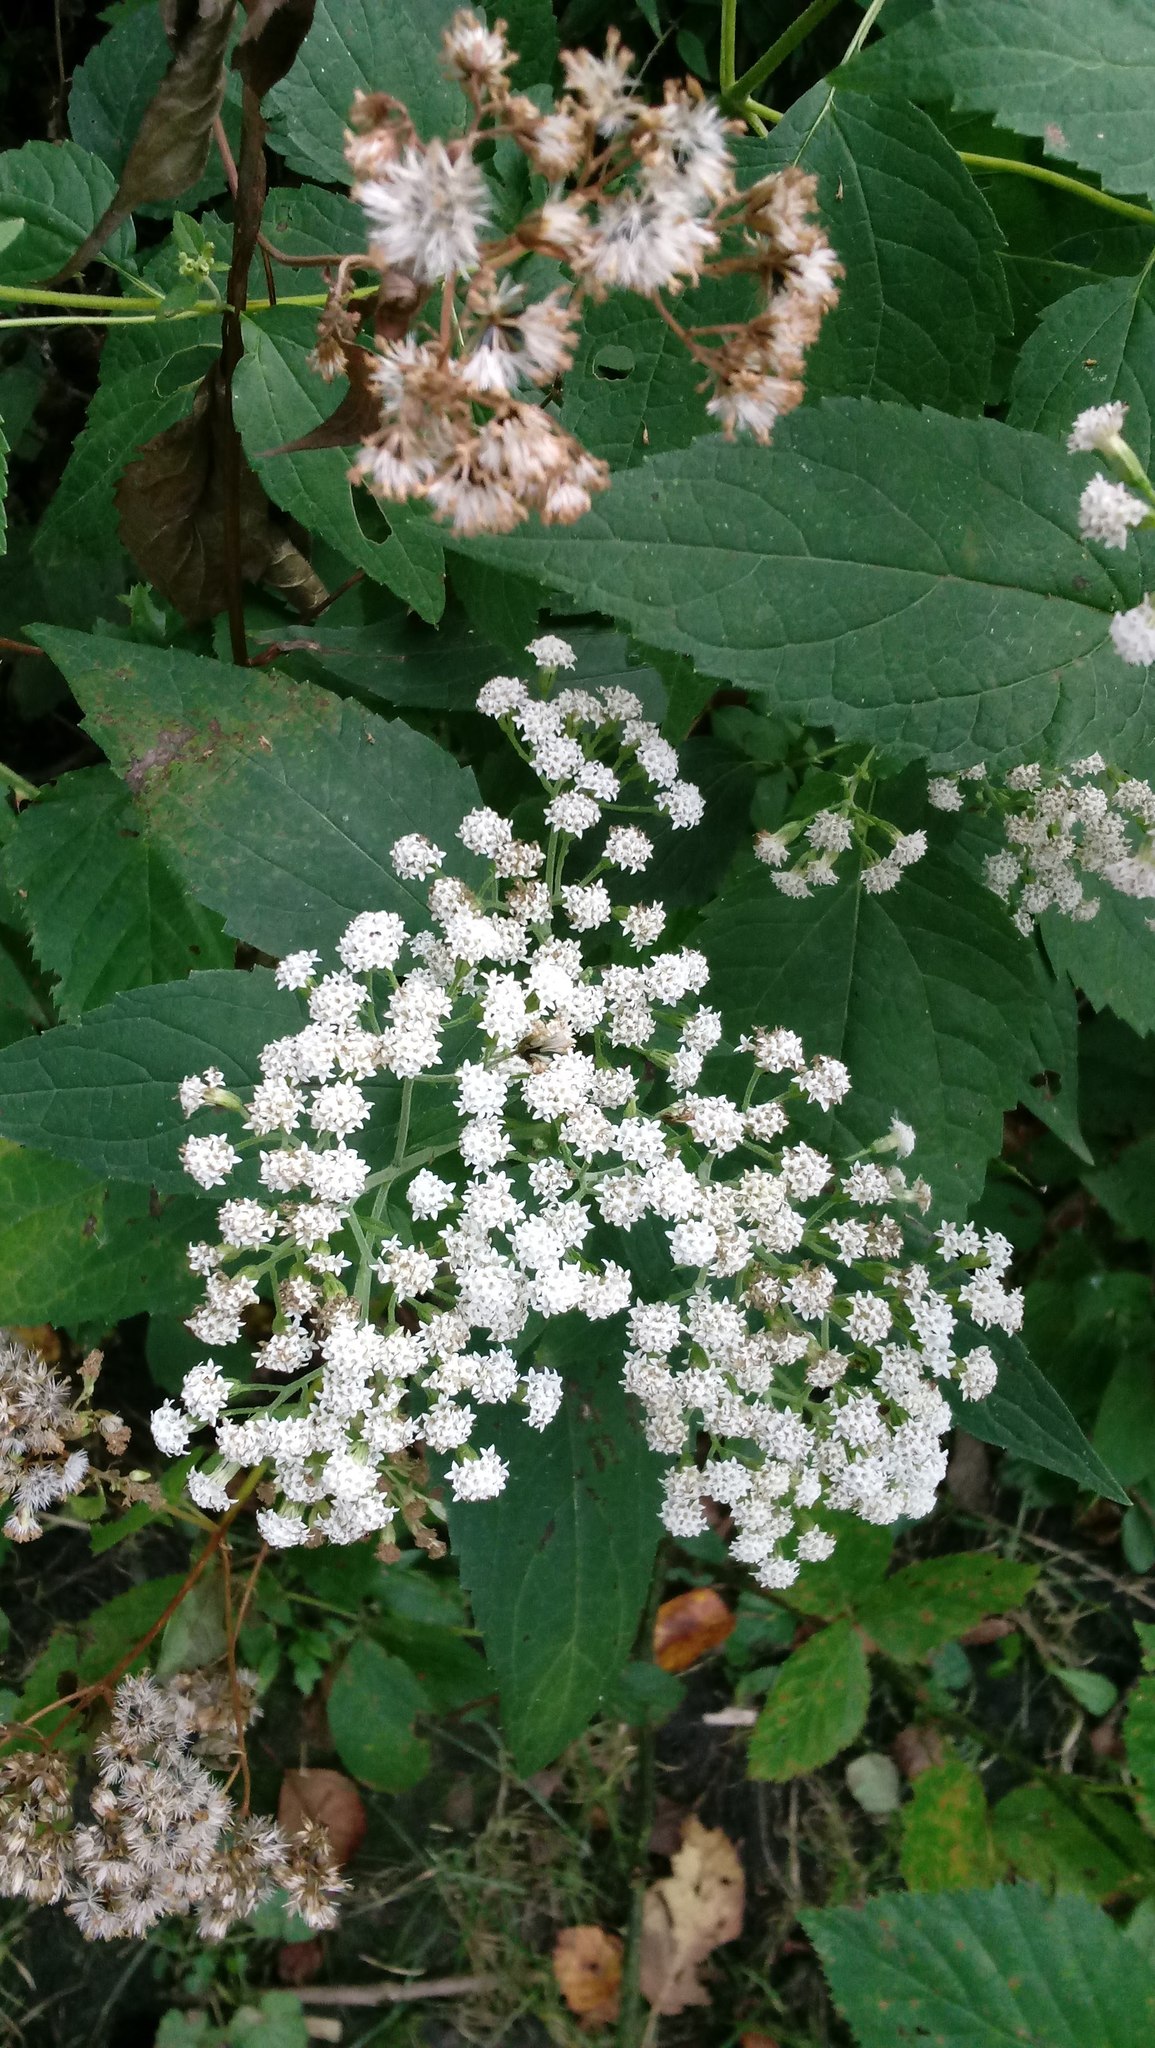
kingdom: Plantae
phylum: Tracheophyta
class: Magnoliopsida
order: Asterales
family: Asteraceae
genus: Ageratina
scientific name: Ageratina altissima
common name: White snakeroot
